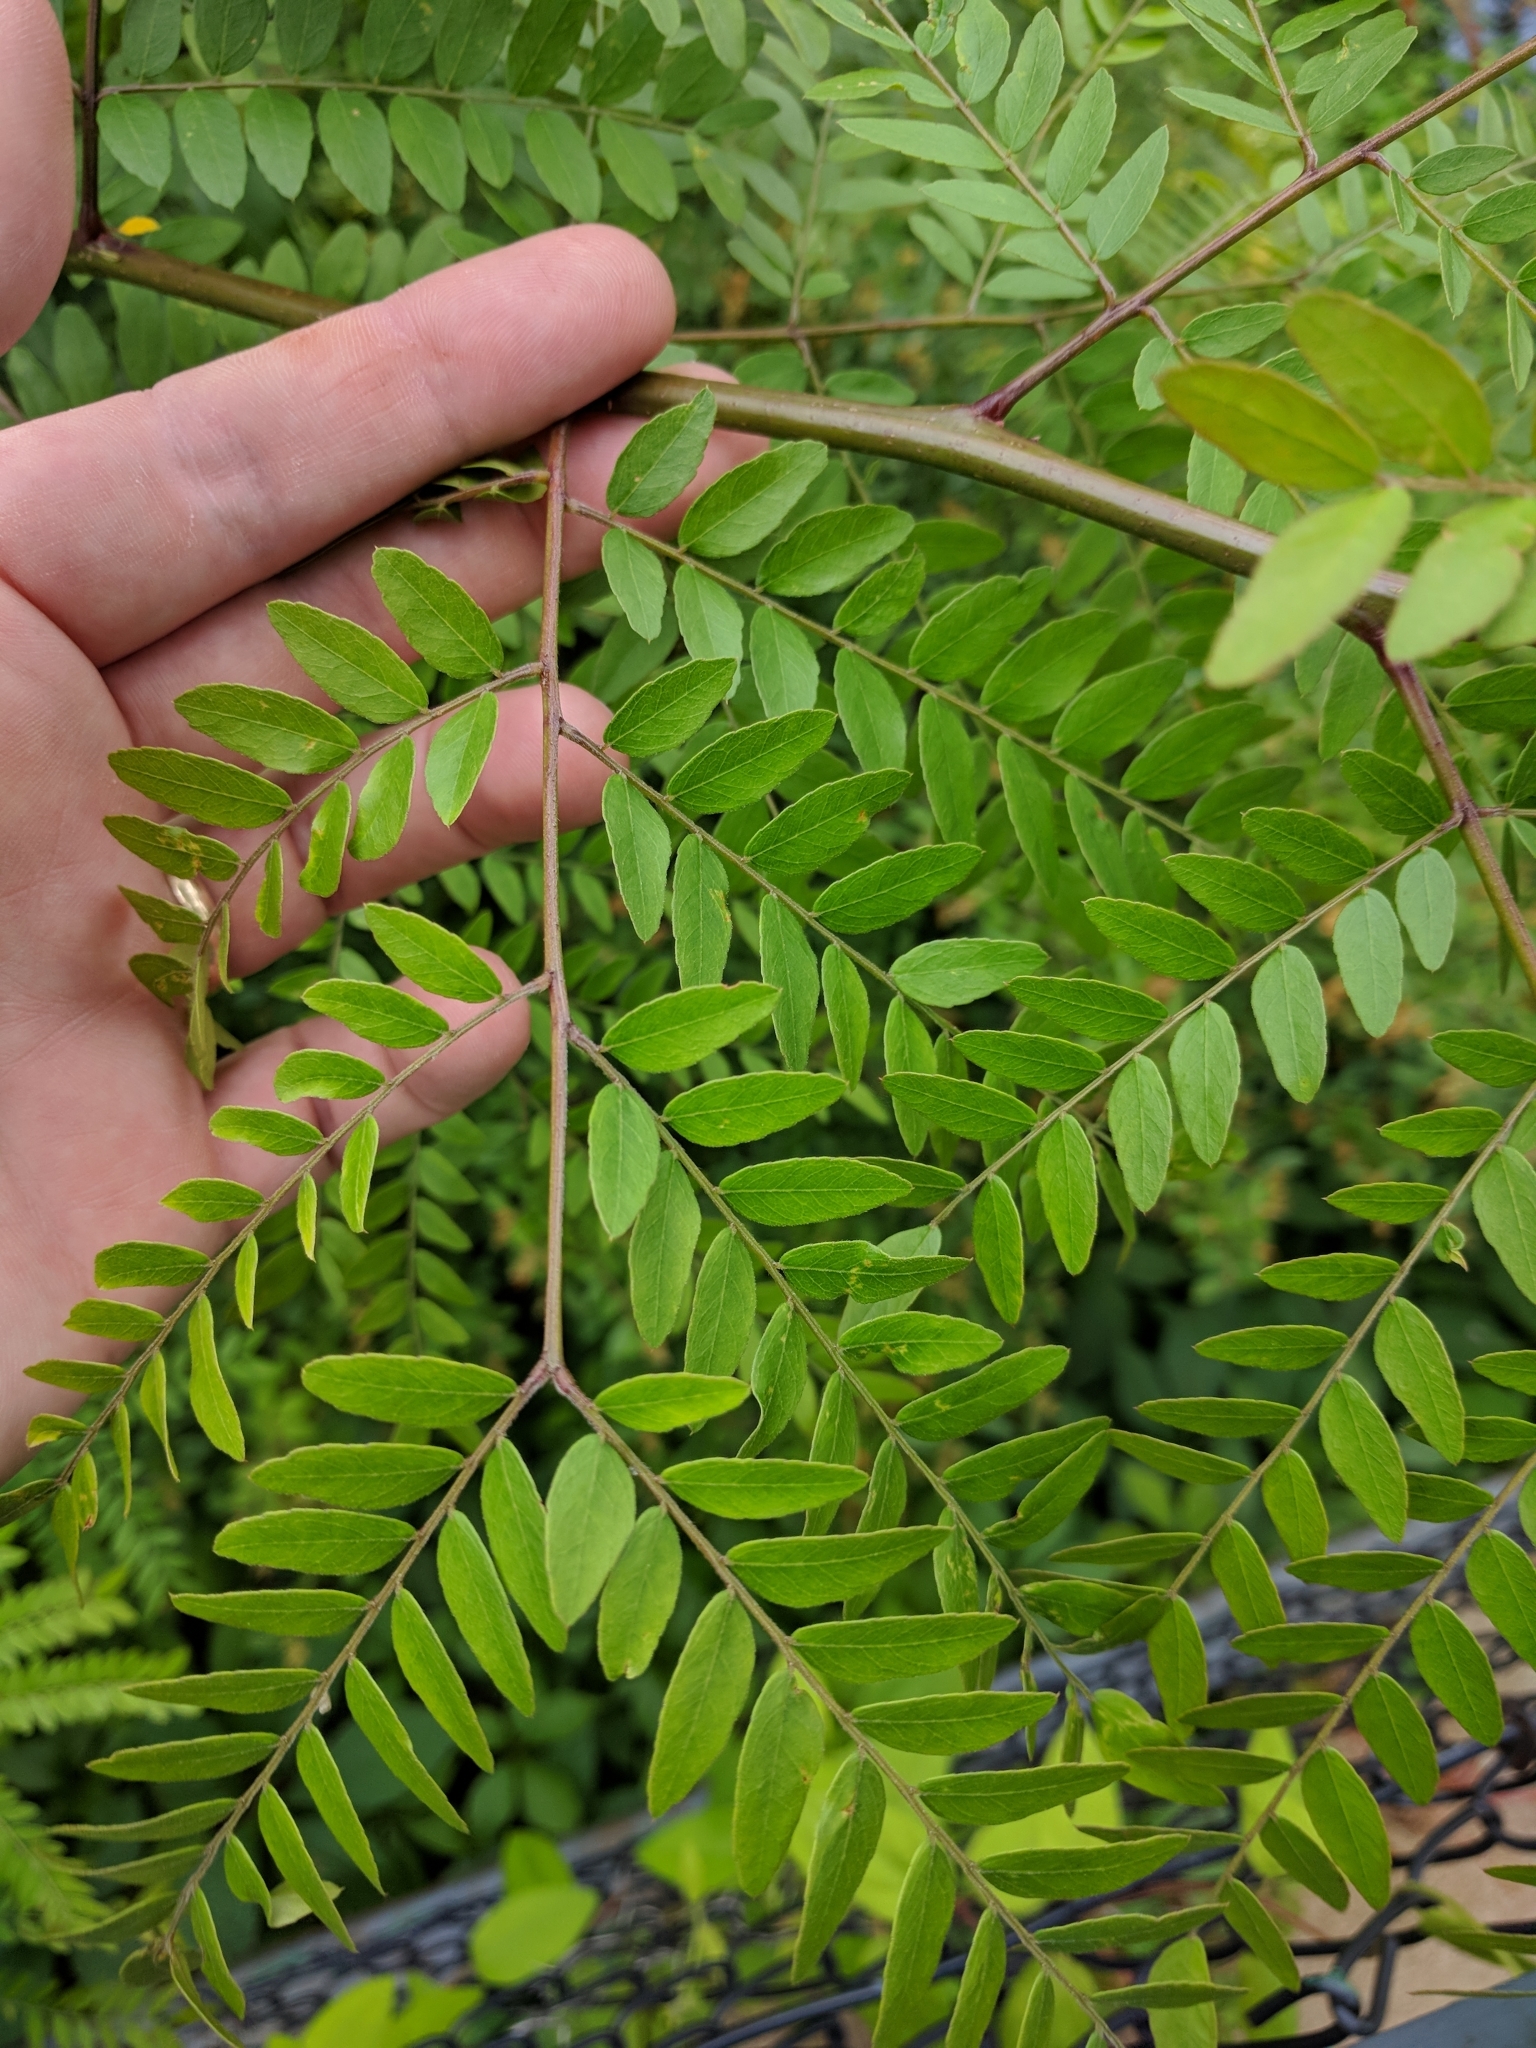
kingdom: Plantae
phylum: Tracheophyta
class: Magnoliopsida
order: Fabales
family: Fabaceae
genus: Gleditsia
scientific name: Gleditsia triacanthos
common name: Common honeylocust
